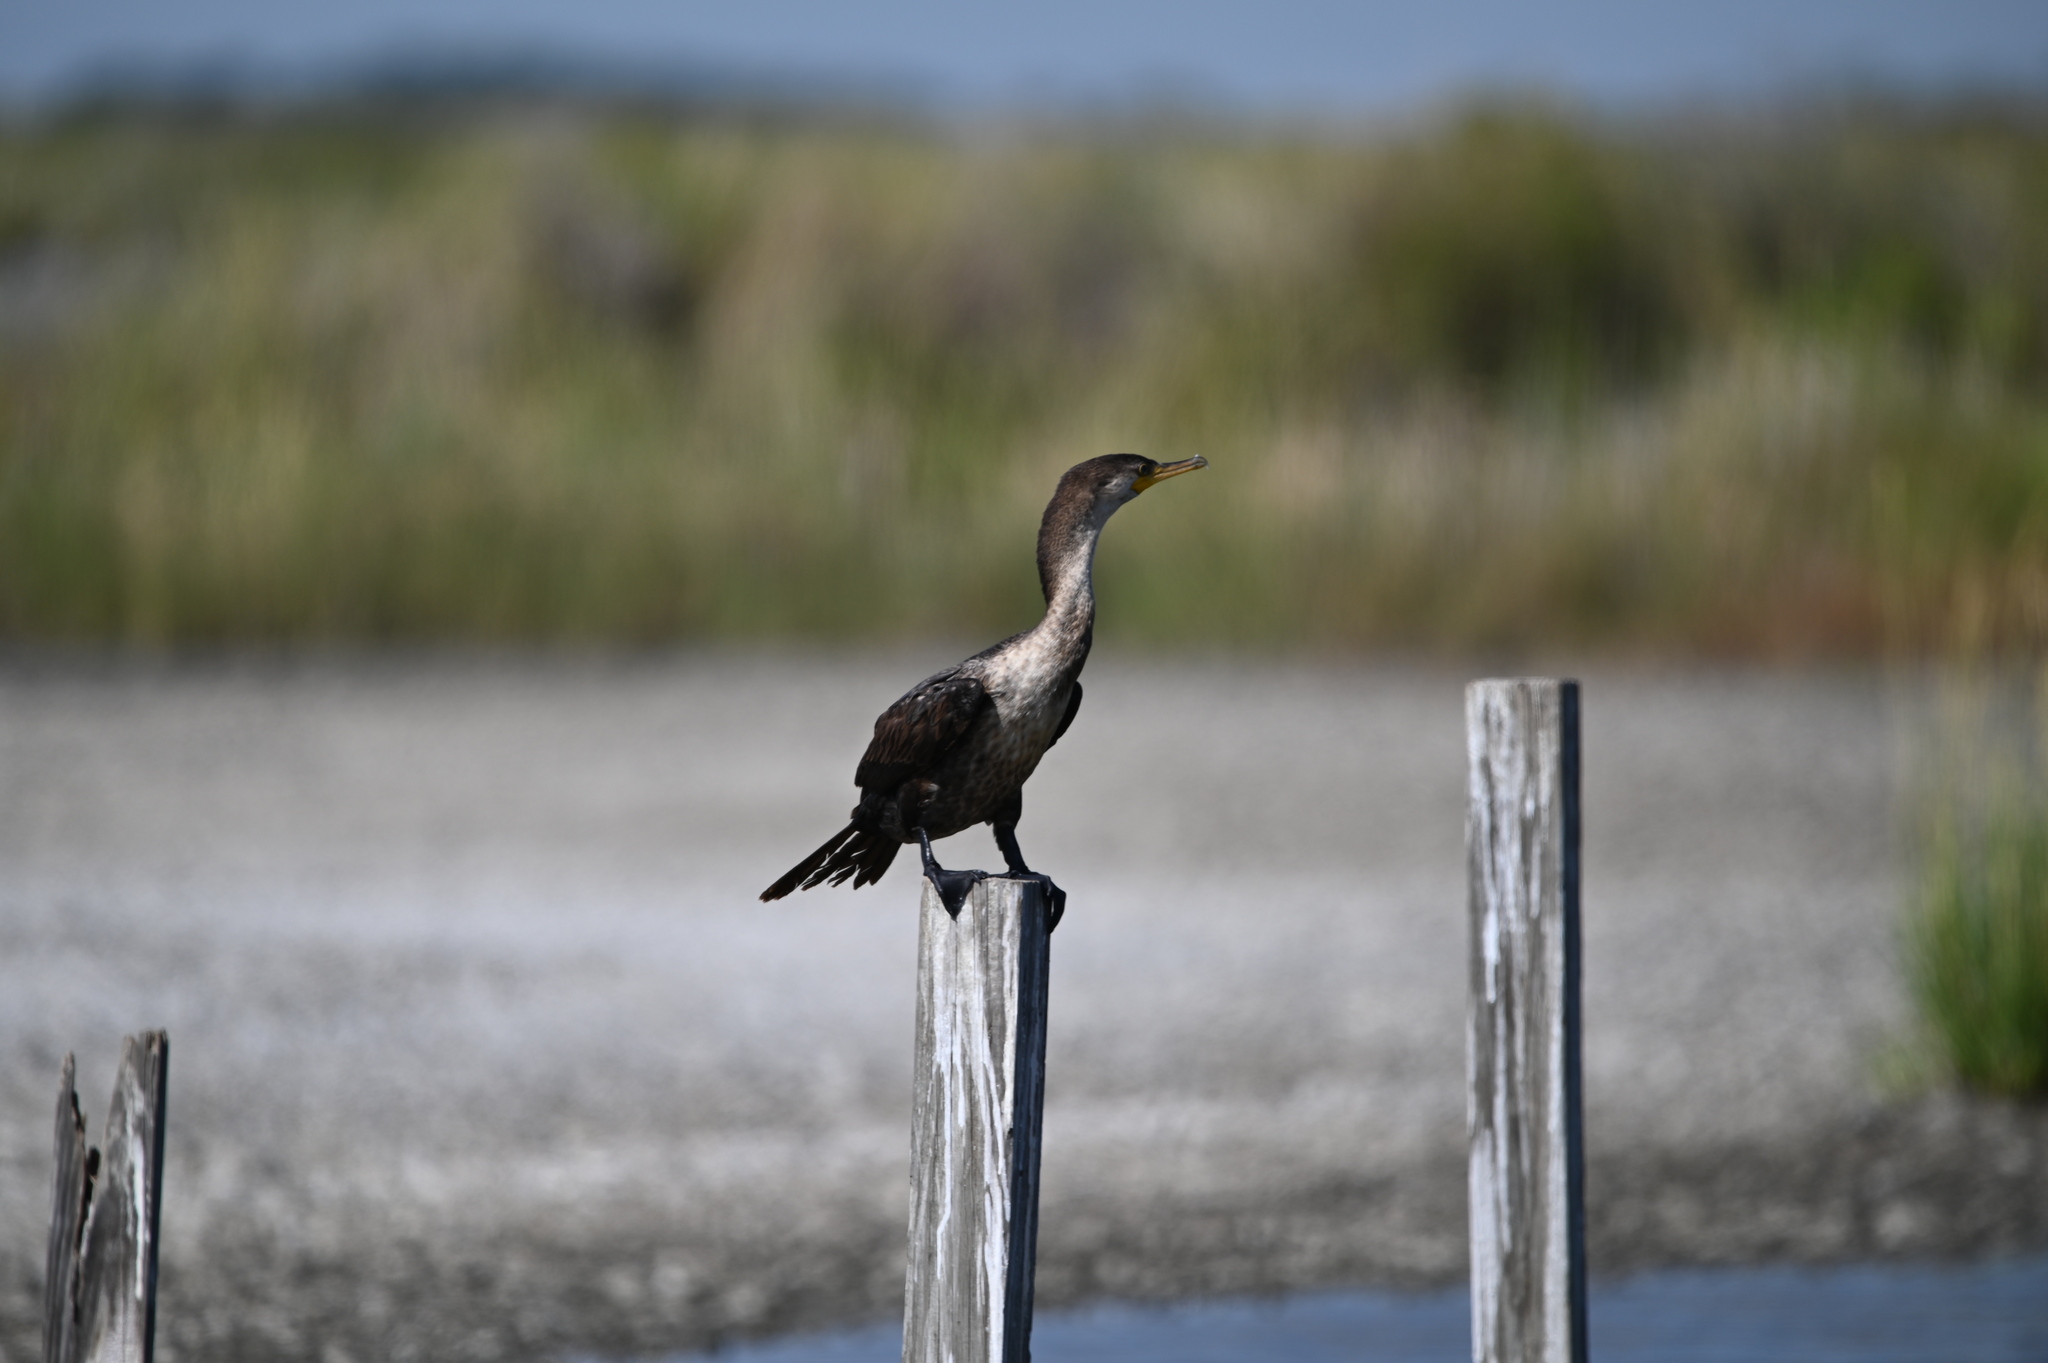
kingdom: Animalia
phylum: Chordata
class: Aves
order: Suliformes
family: Phalacrocoracidae
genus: Phalacrocorax
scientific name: Phalacrocorax auritus
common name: Double-crested cormorant
